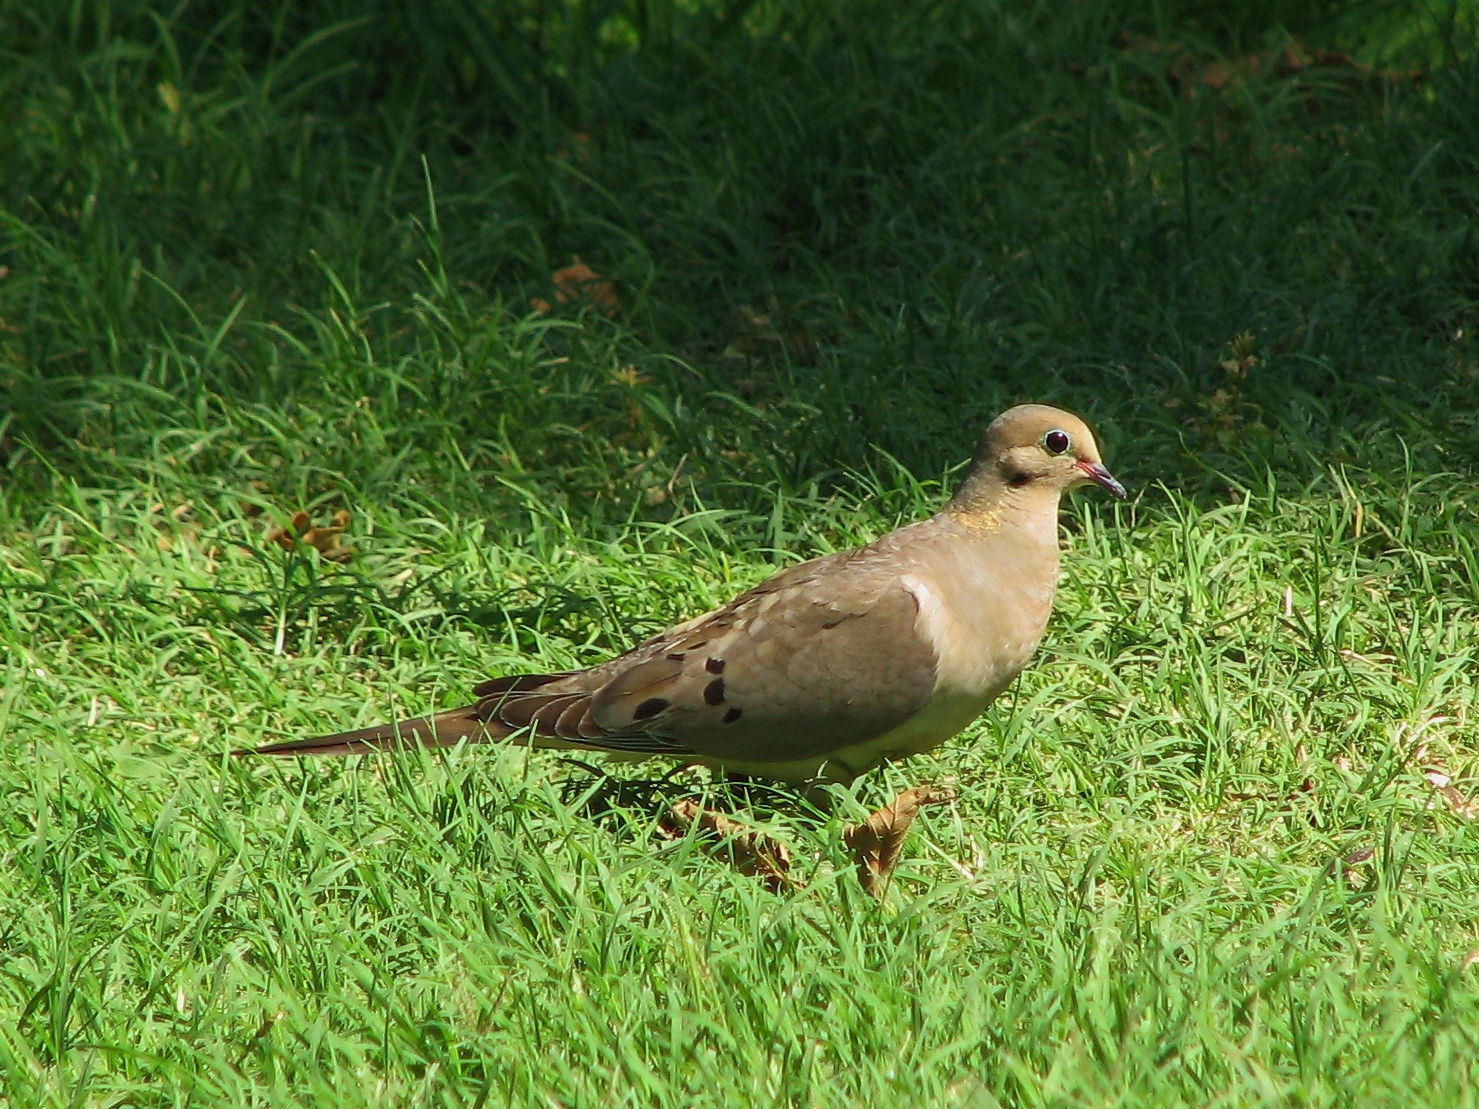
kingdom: Animalia
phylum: Chordata
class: Aves
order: Columbiformes
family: Columbidae
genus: Zenaida
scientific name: Zenaida macroura
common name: Mourning dove
